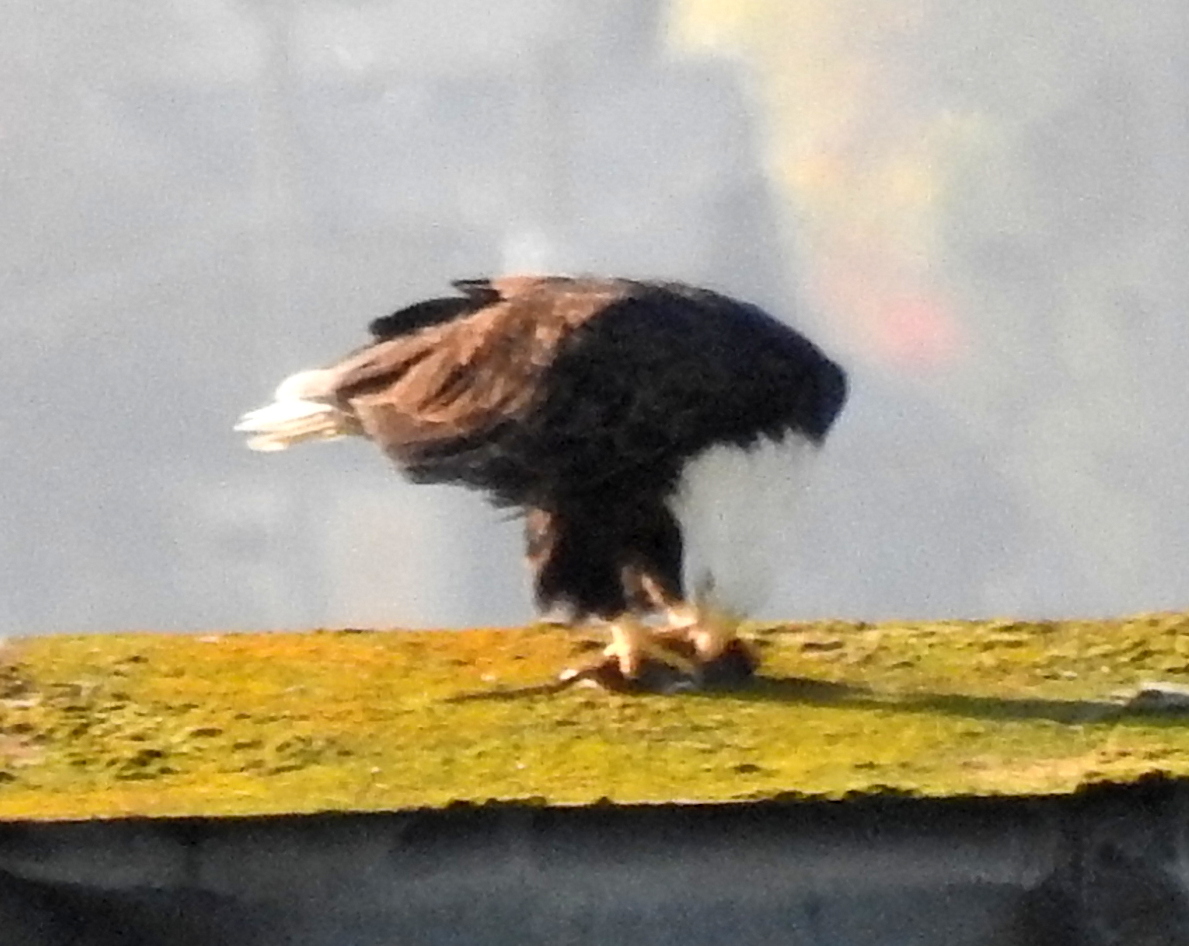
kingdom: Animalia
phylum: Chordata
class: Aves
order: Accipitriformes
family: Accipitridae
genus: Haliaeetus
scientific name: Haliaeetus leucocephalus
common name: Bald eagle
